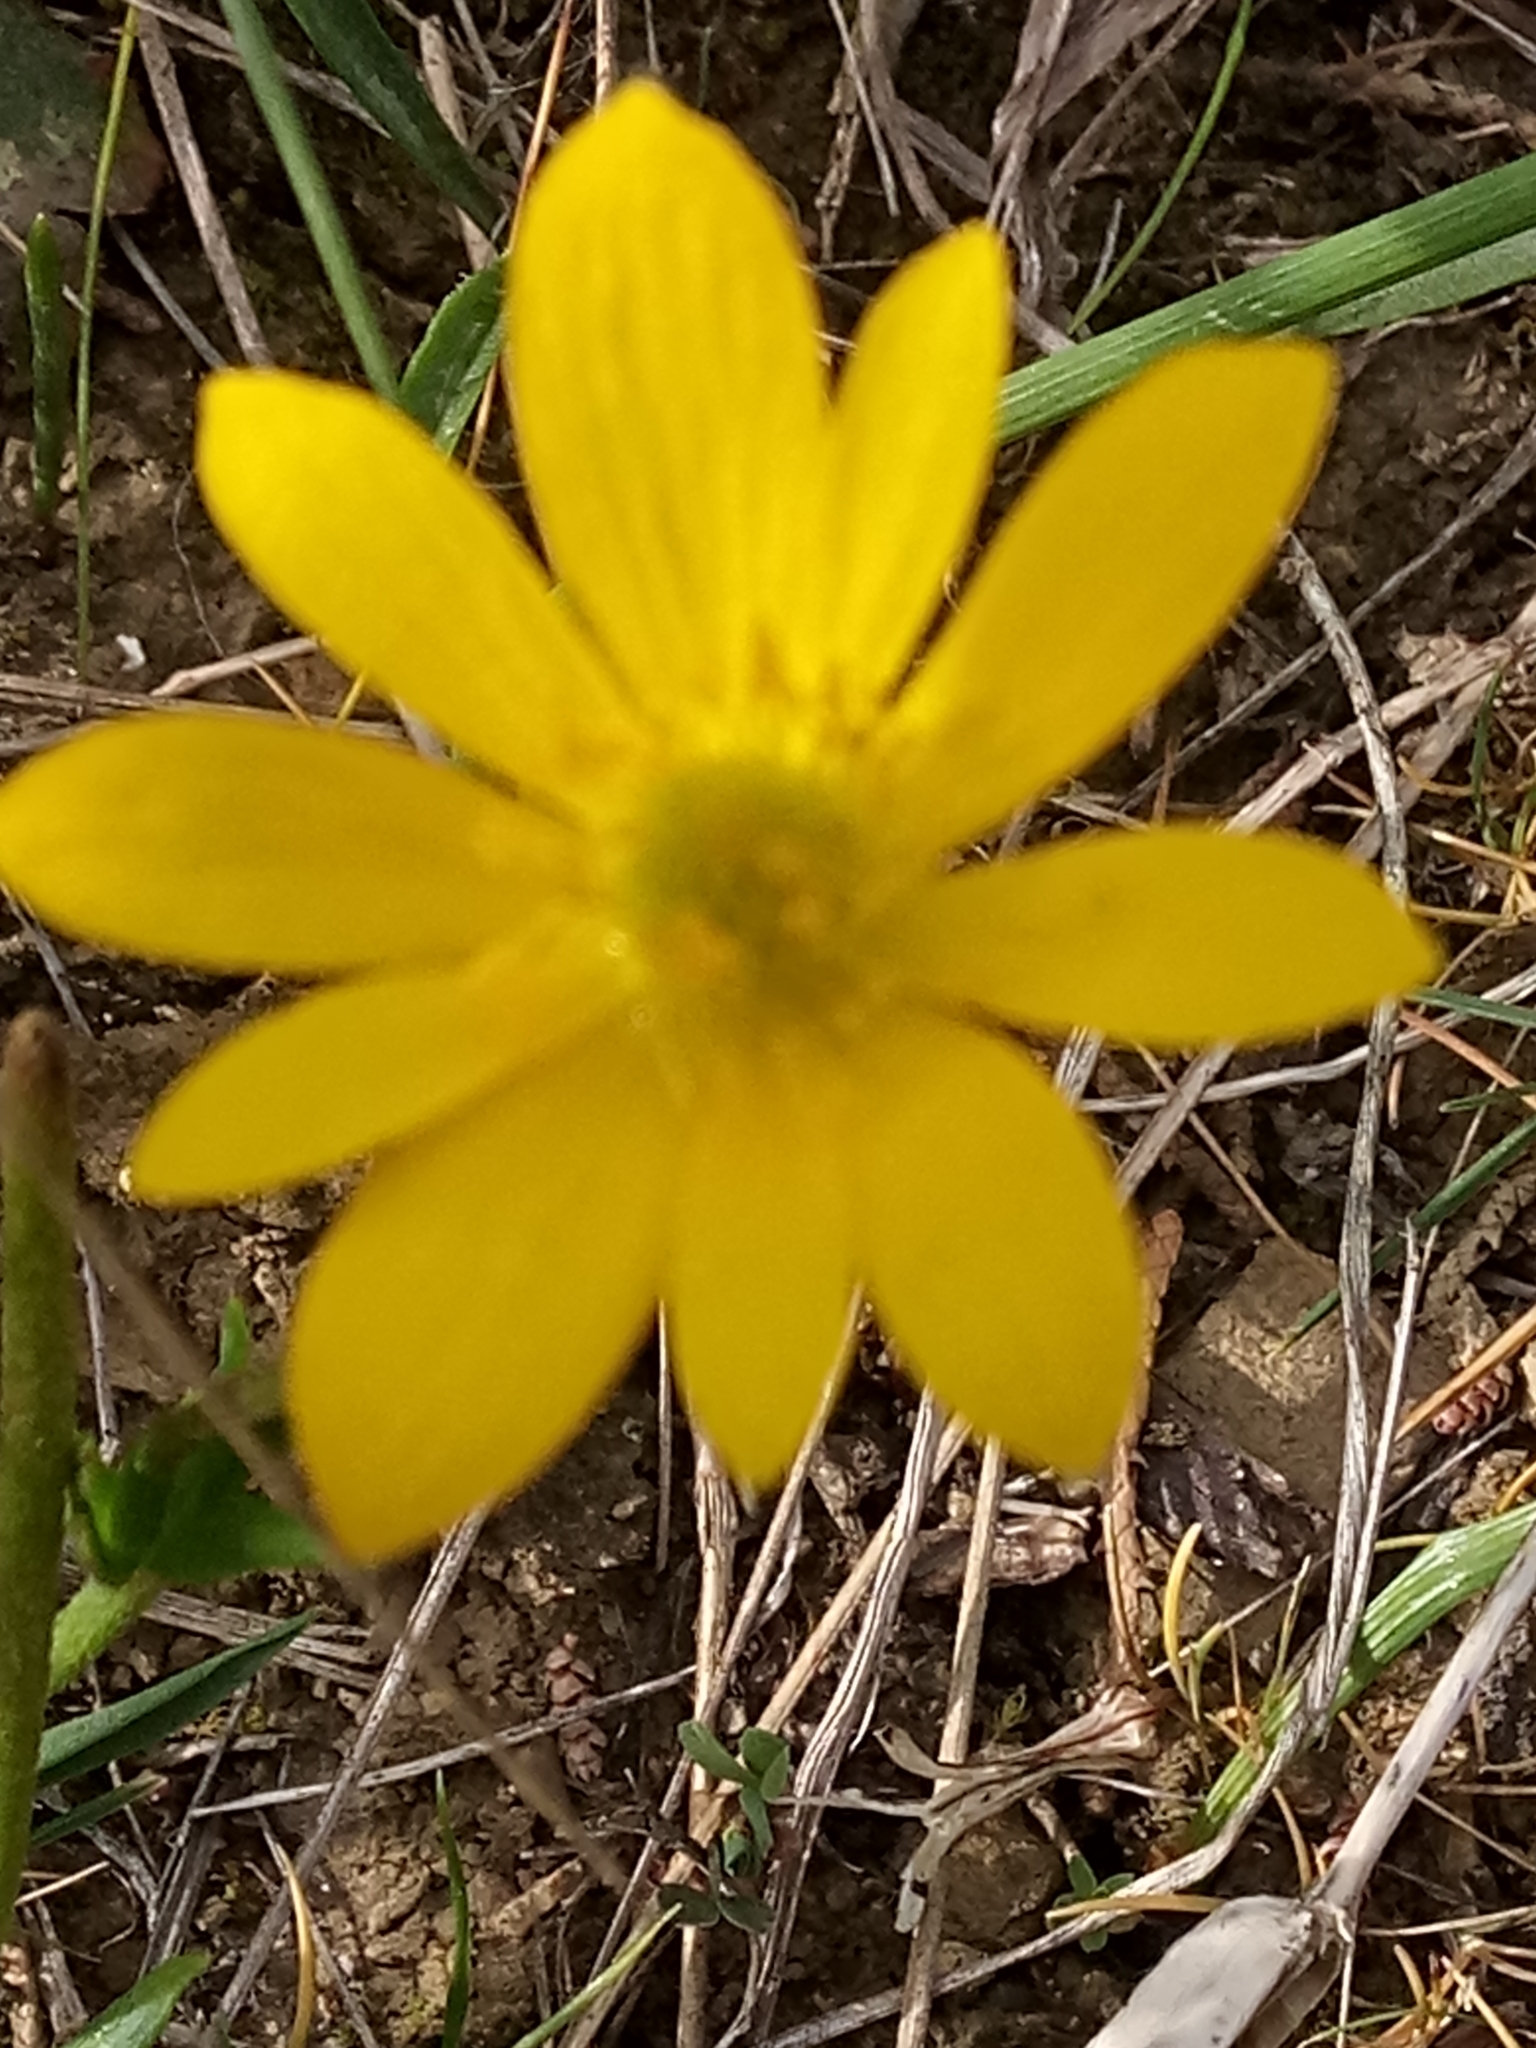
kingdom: Plantae
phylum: Tracheophyta
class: Magnoliopsida
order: Ranunculales
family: Ranunculaceae
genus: Anemone
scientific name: Anemone palmata
